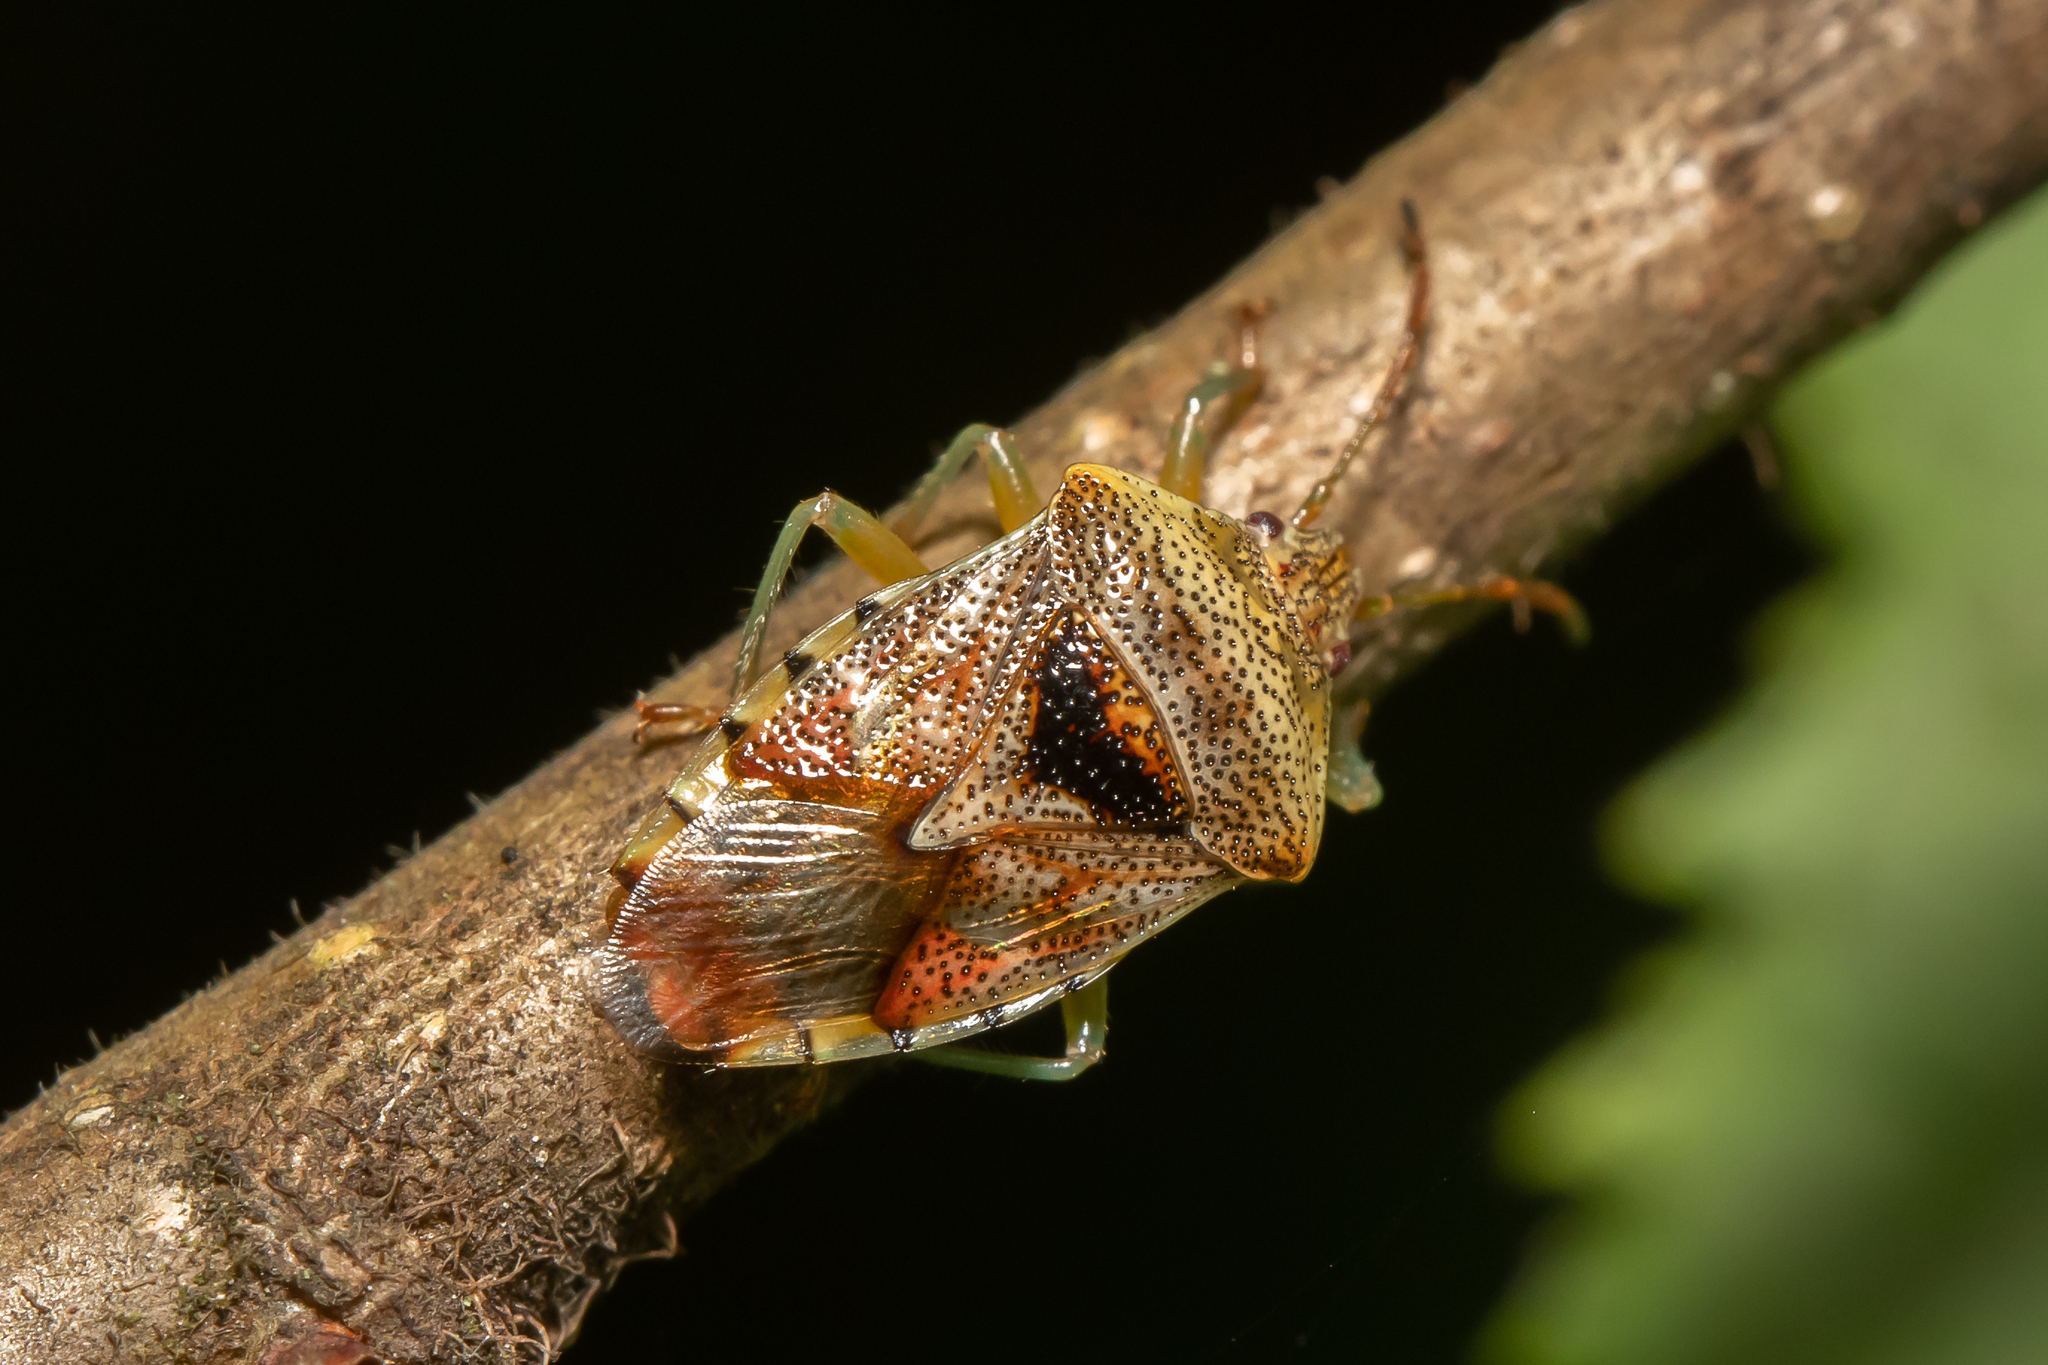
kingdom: Animalia
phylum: Arthropoda
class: Insecta
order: Hemiptera
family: Acanthosomatidae
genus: Elasmucha
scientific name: Elasmucha grisea
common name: Parent bug
